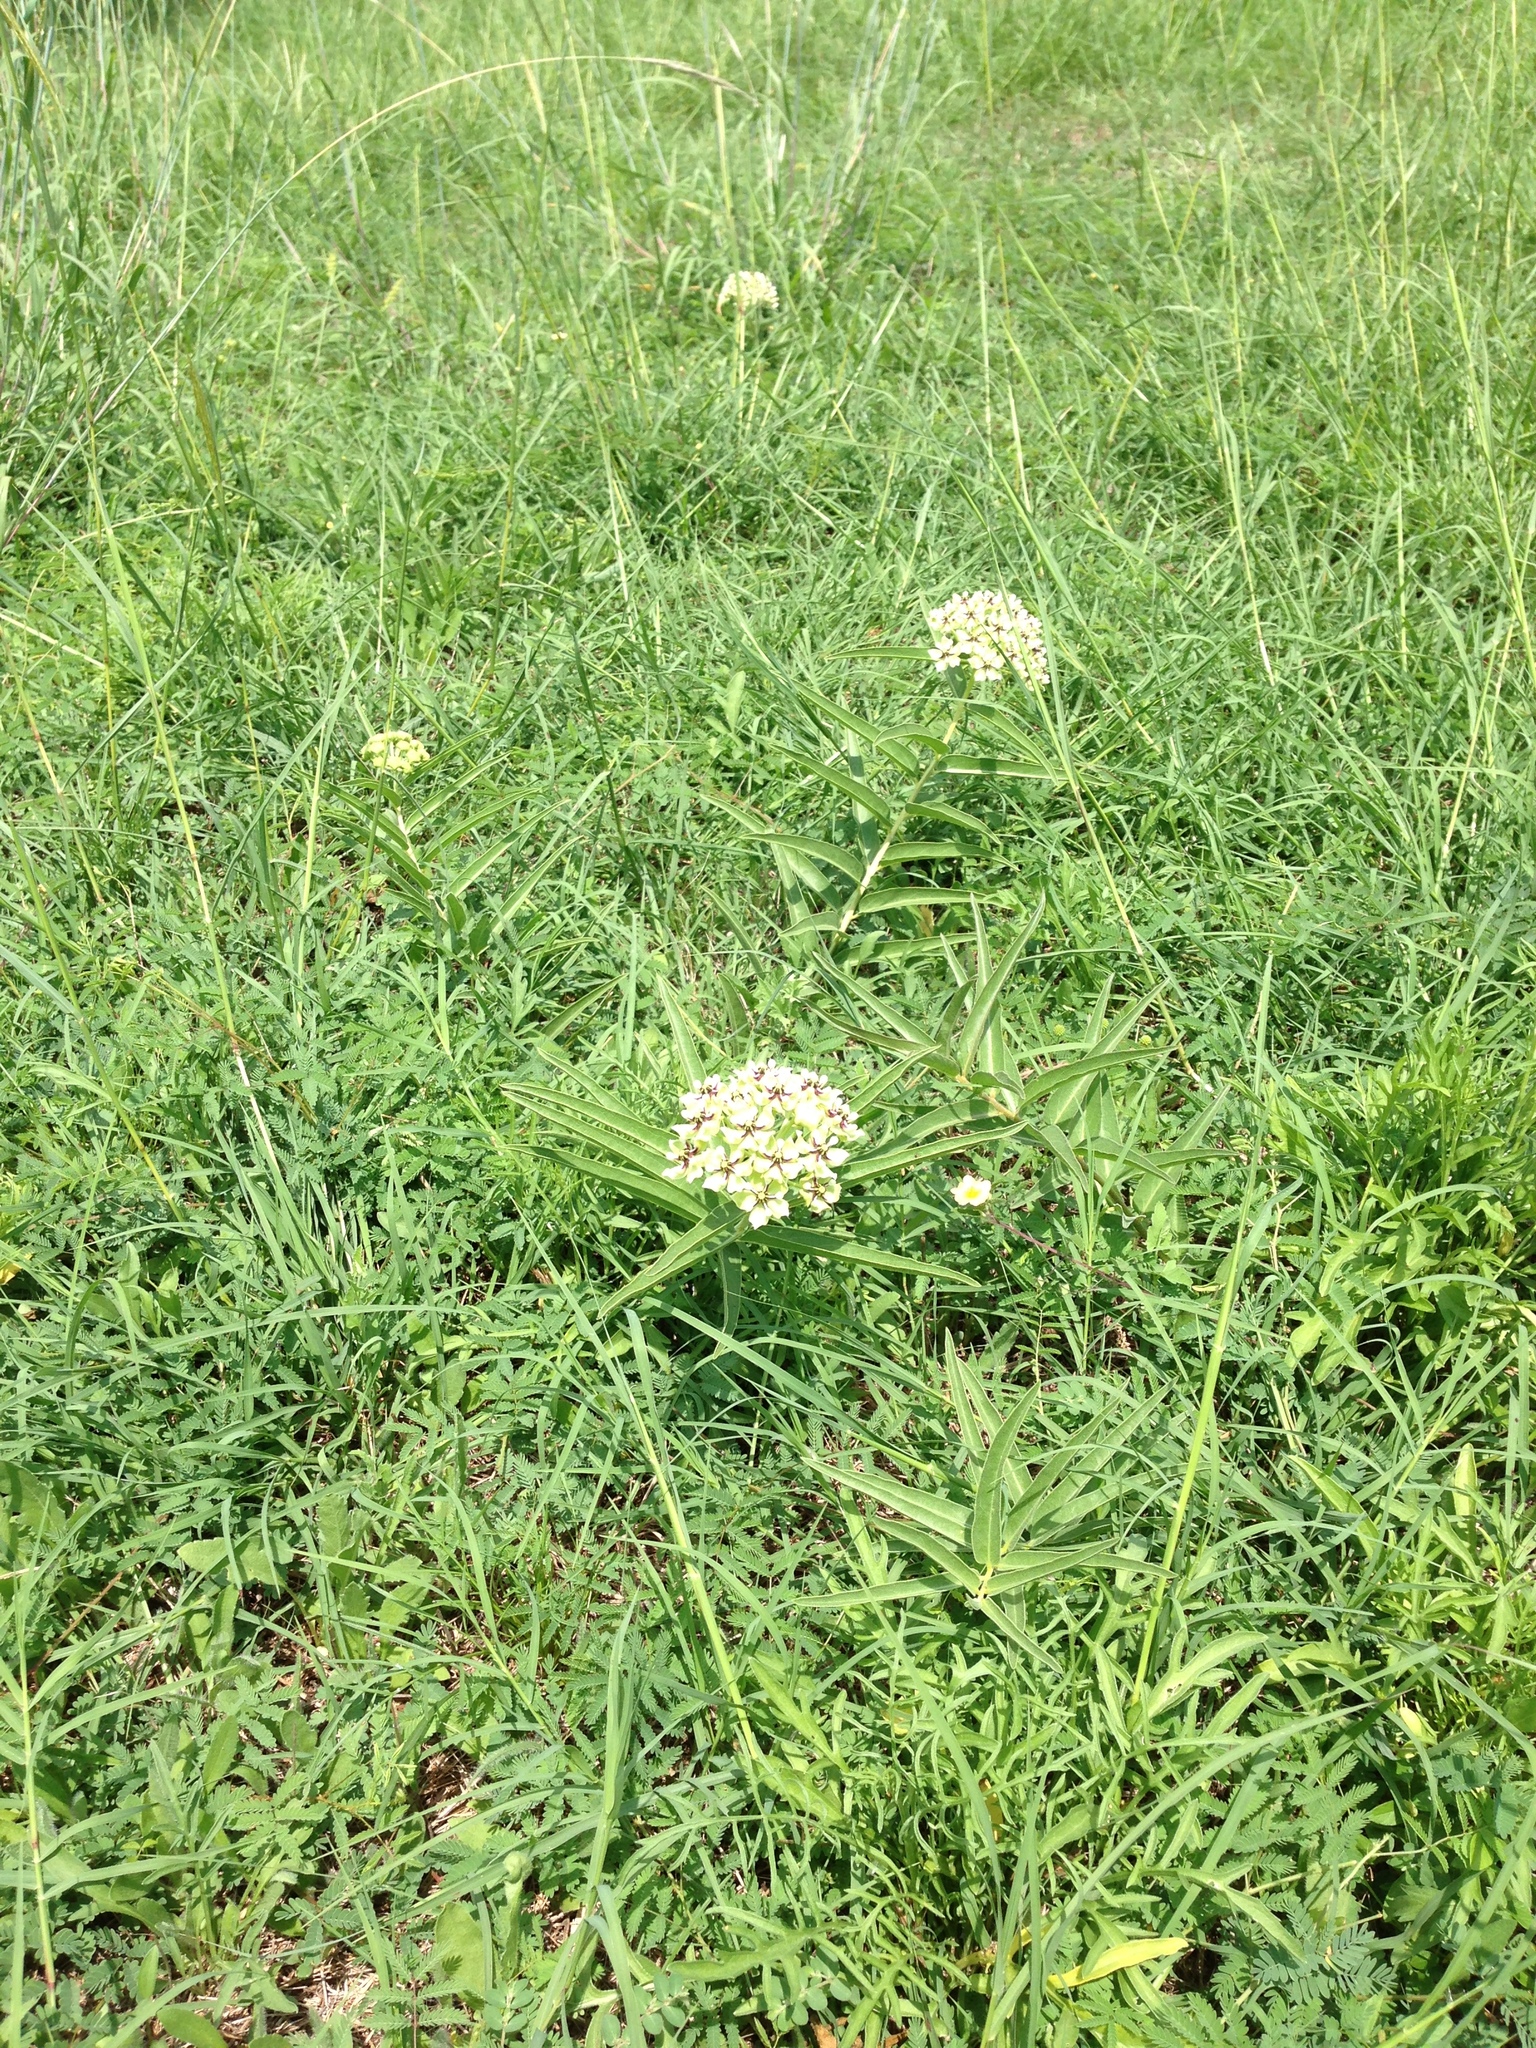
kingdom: Plantae
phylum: Tracheophyta
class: Magnoliopsida
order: Gentianales
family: Apocynaceae
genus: Asclepias
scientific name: Asclepias asperula
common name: Antelope horns
